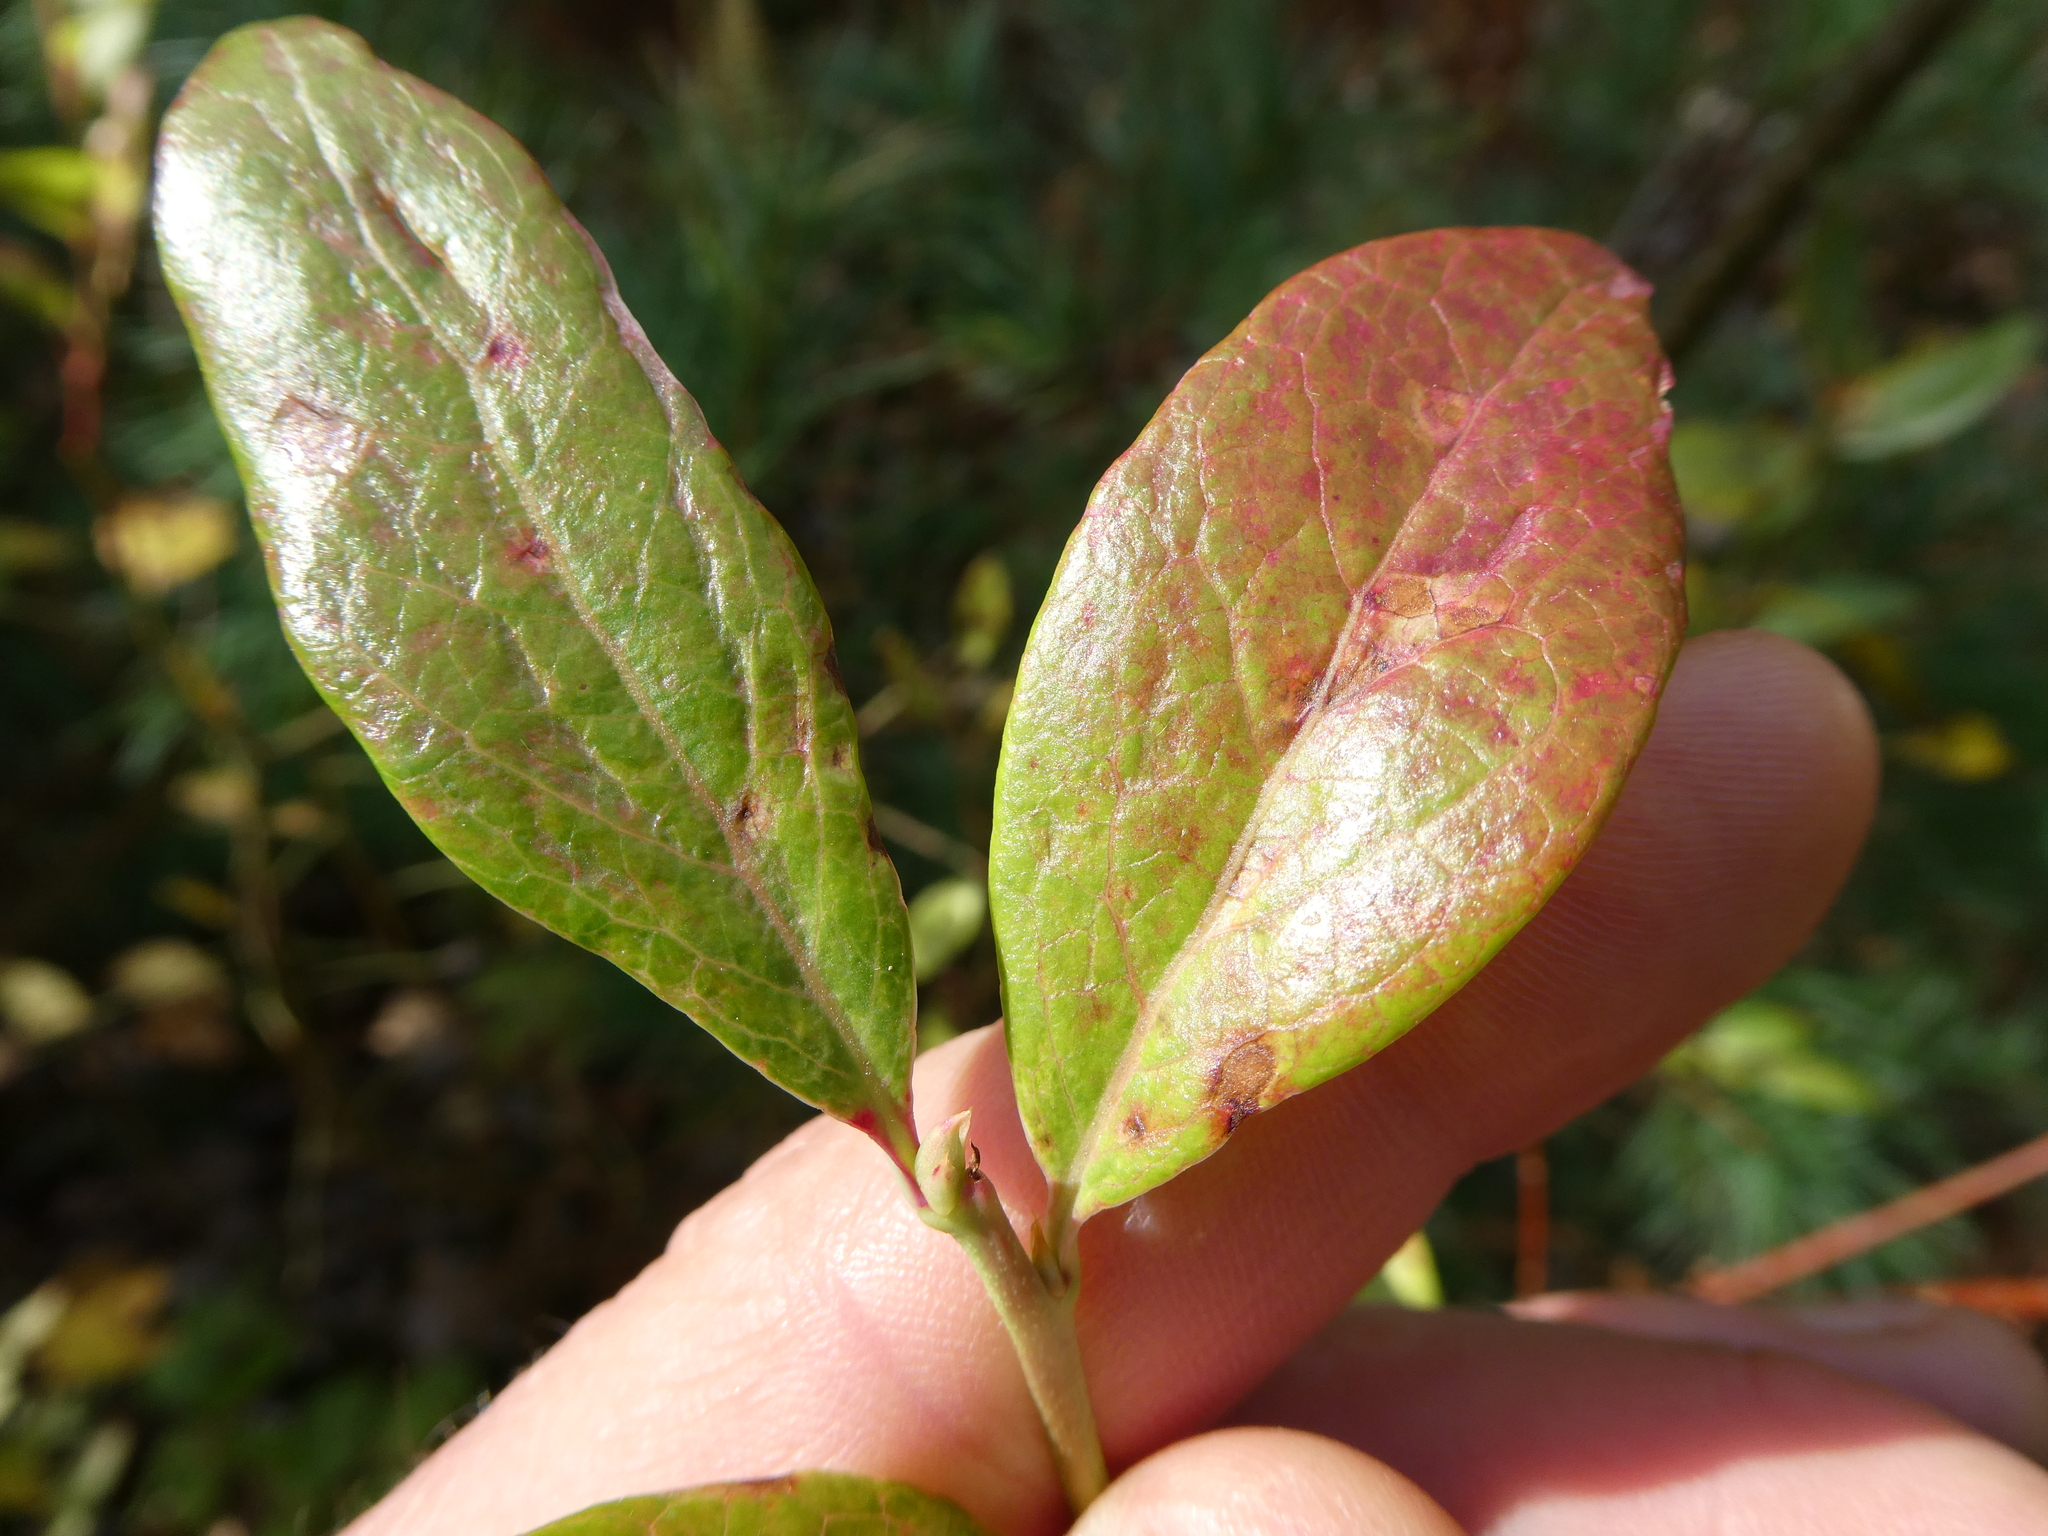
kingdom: Plantae
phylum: Tracheophyta
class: Magnoliopsida
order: Ericales
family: Ericaceae
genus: Vaccinium
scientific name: Vaccinium corymbosum
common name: Blueberry
